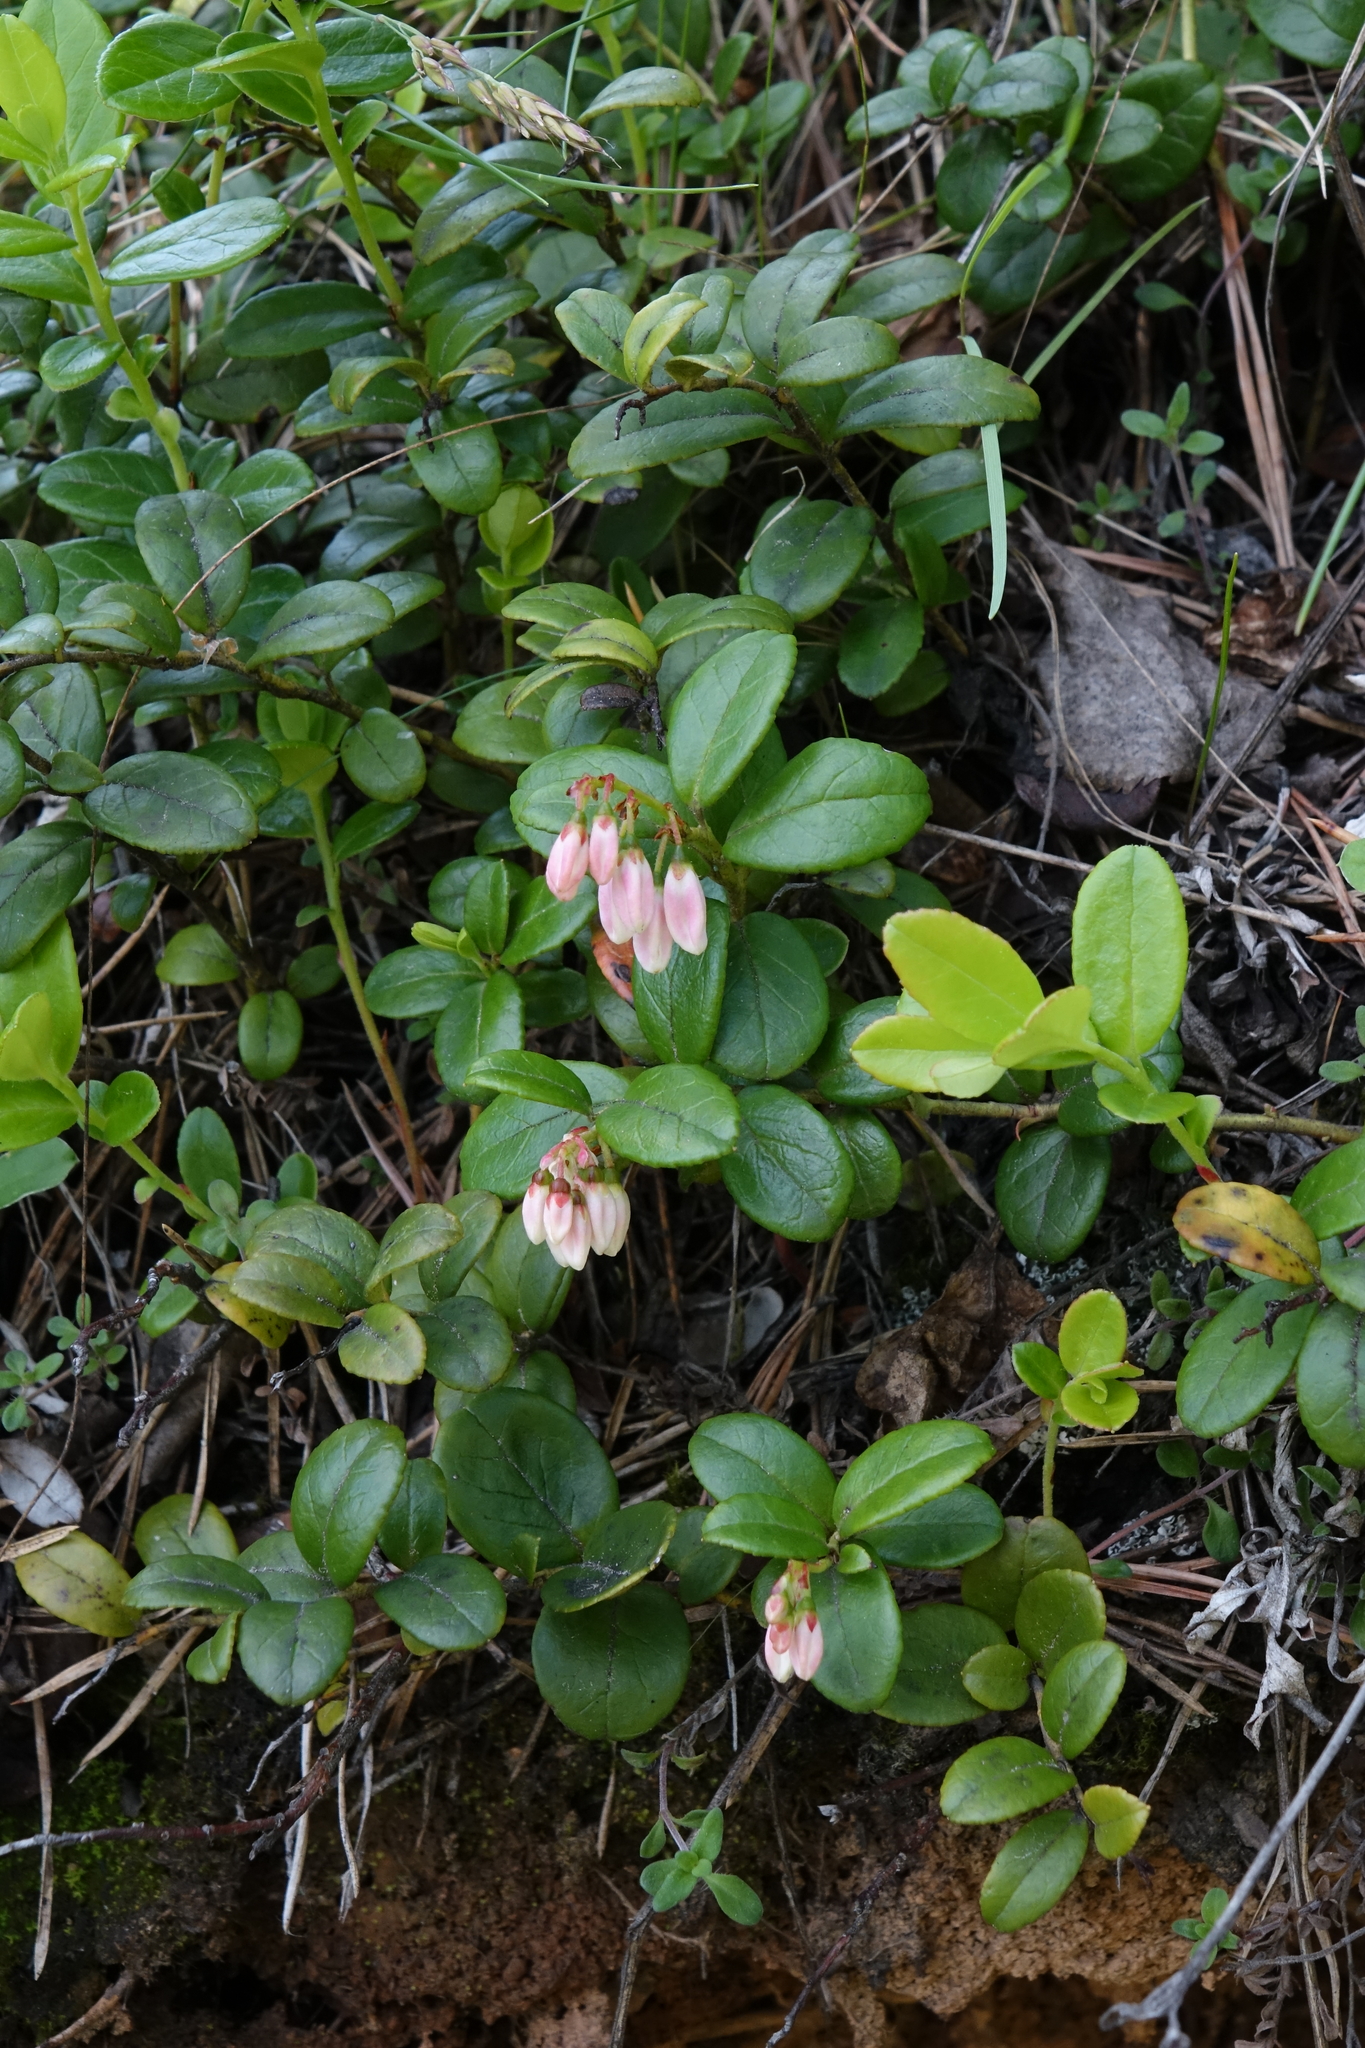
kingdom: Plantae
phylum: Tracheophyta
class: Magnoliopsida
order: Ericales
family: Ericaceae
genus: Vaccinium
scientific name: Vaccinium vitis-idaea
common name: Cowberry
